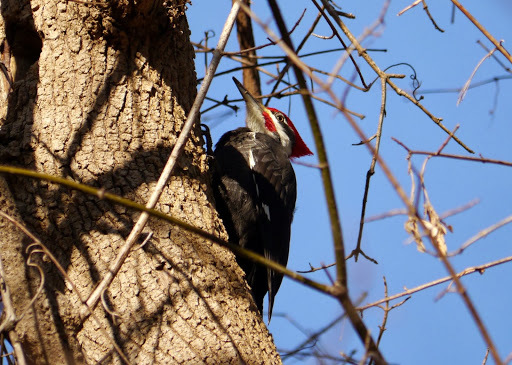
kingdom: Animalia
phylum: Chordata
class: Aves
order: Piciformes
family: Picidae
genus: Dryocopus
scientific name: Dryocopus pileatus
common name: Pileated woodpecker
